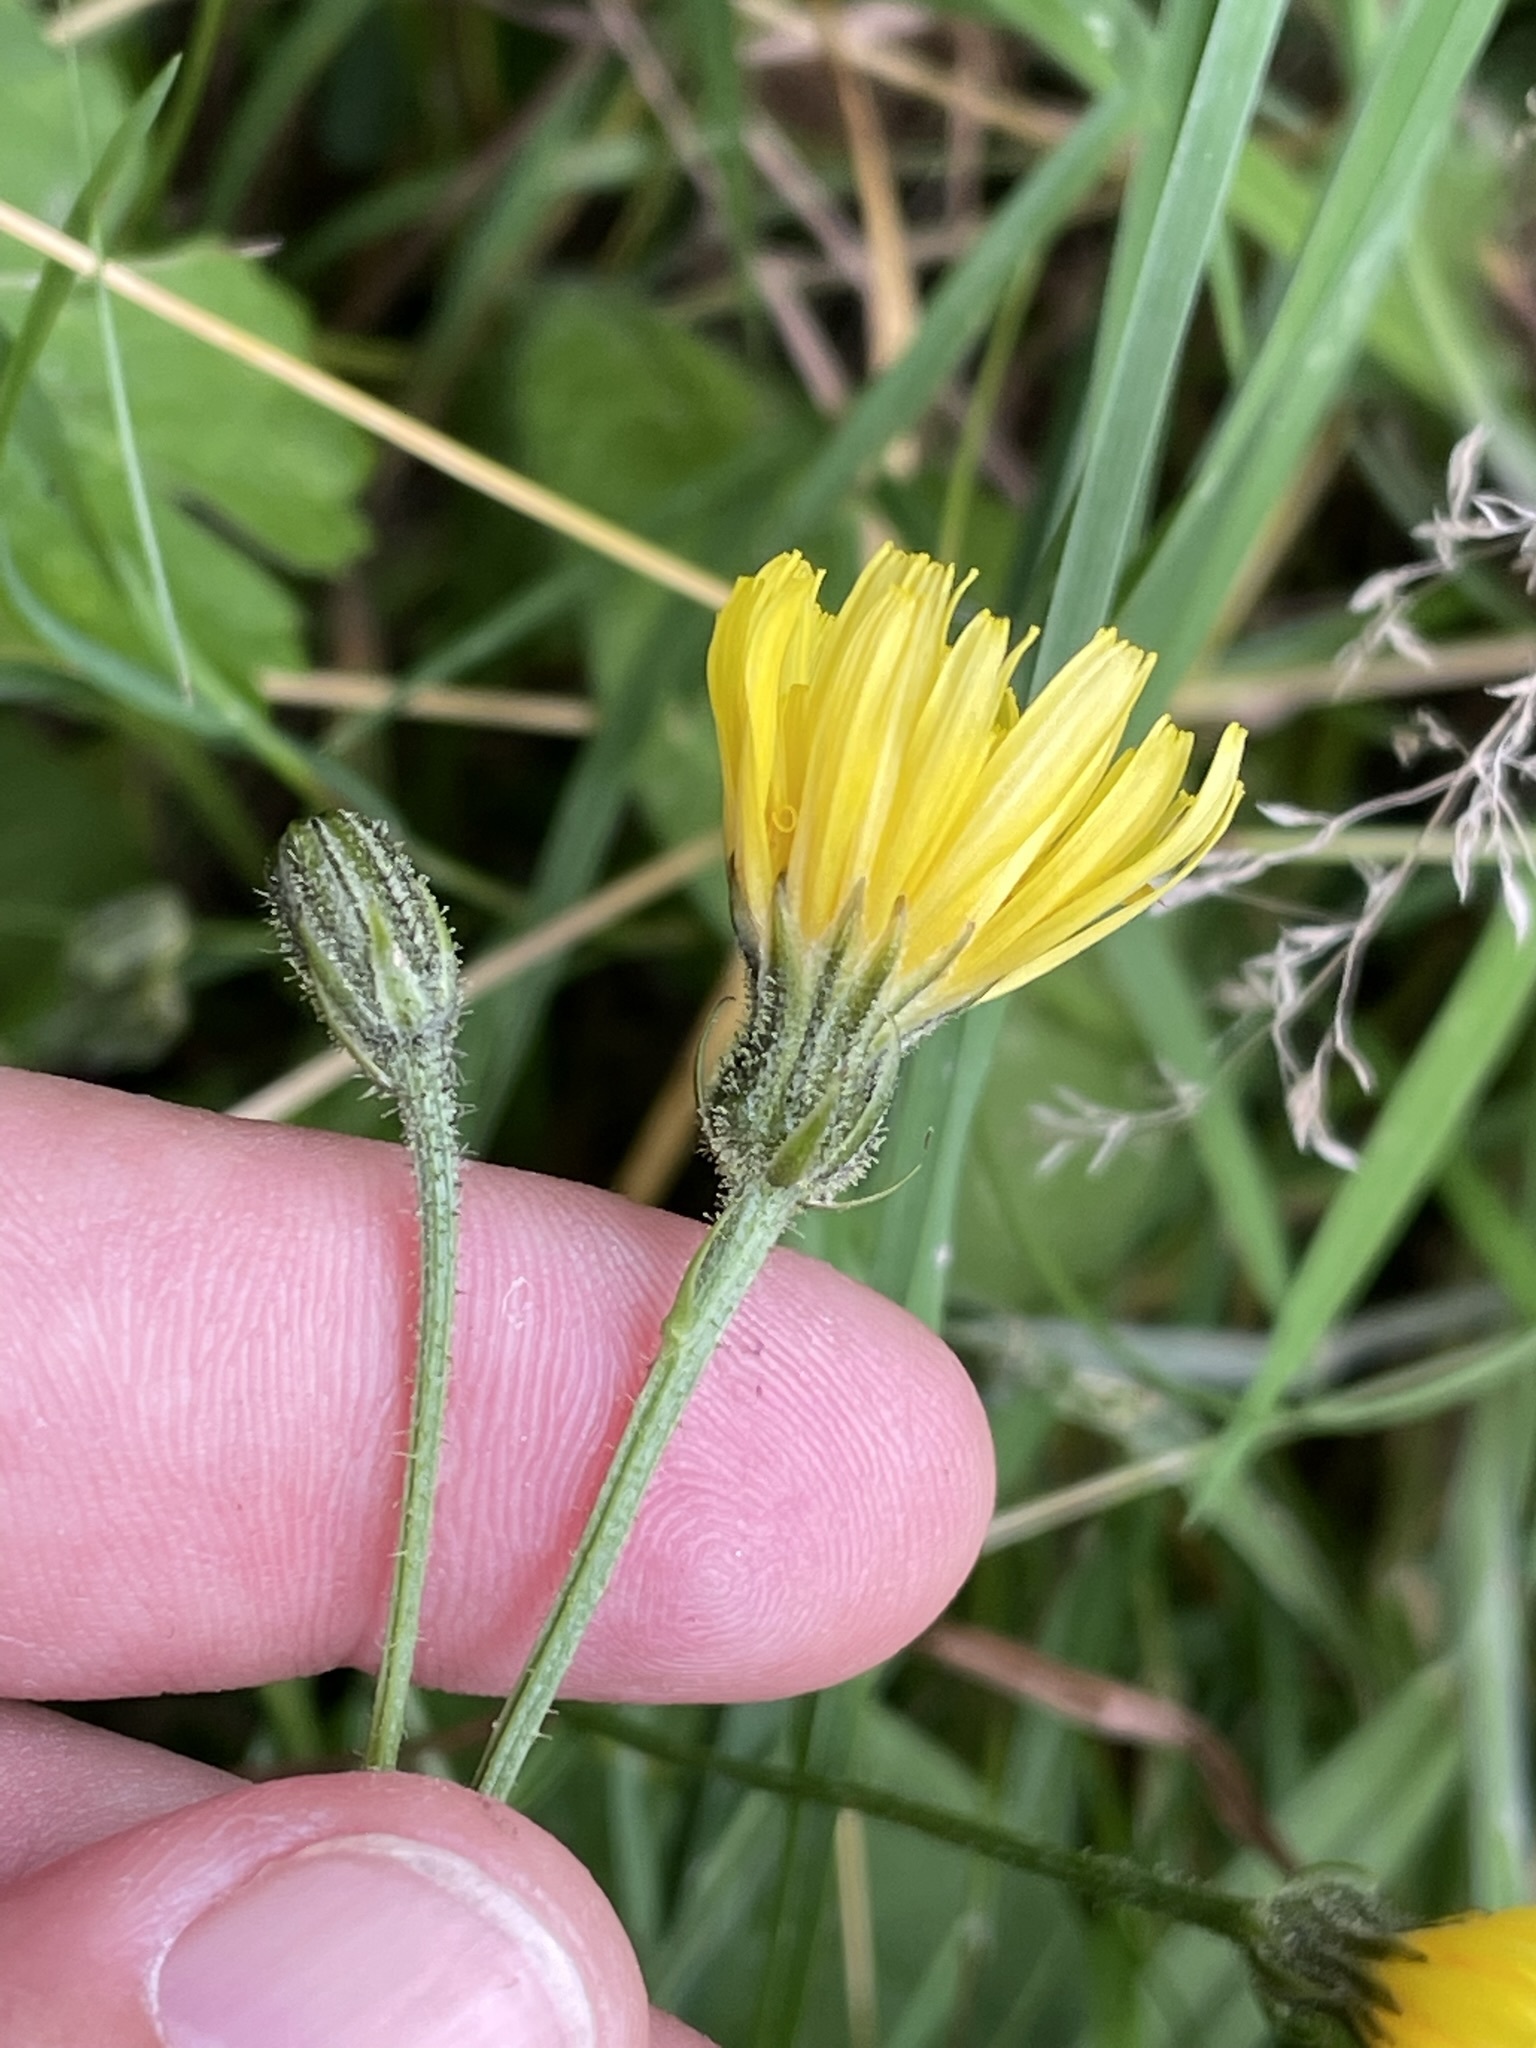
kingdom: Plantae
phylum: Tracheophyta
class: Magnoliopsida
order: Asterales
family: Asteraceae
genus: Crepis
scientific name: Crepis biennis
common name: Rough hawk's-beard
